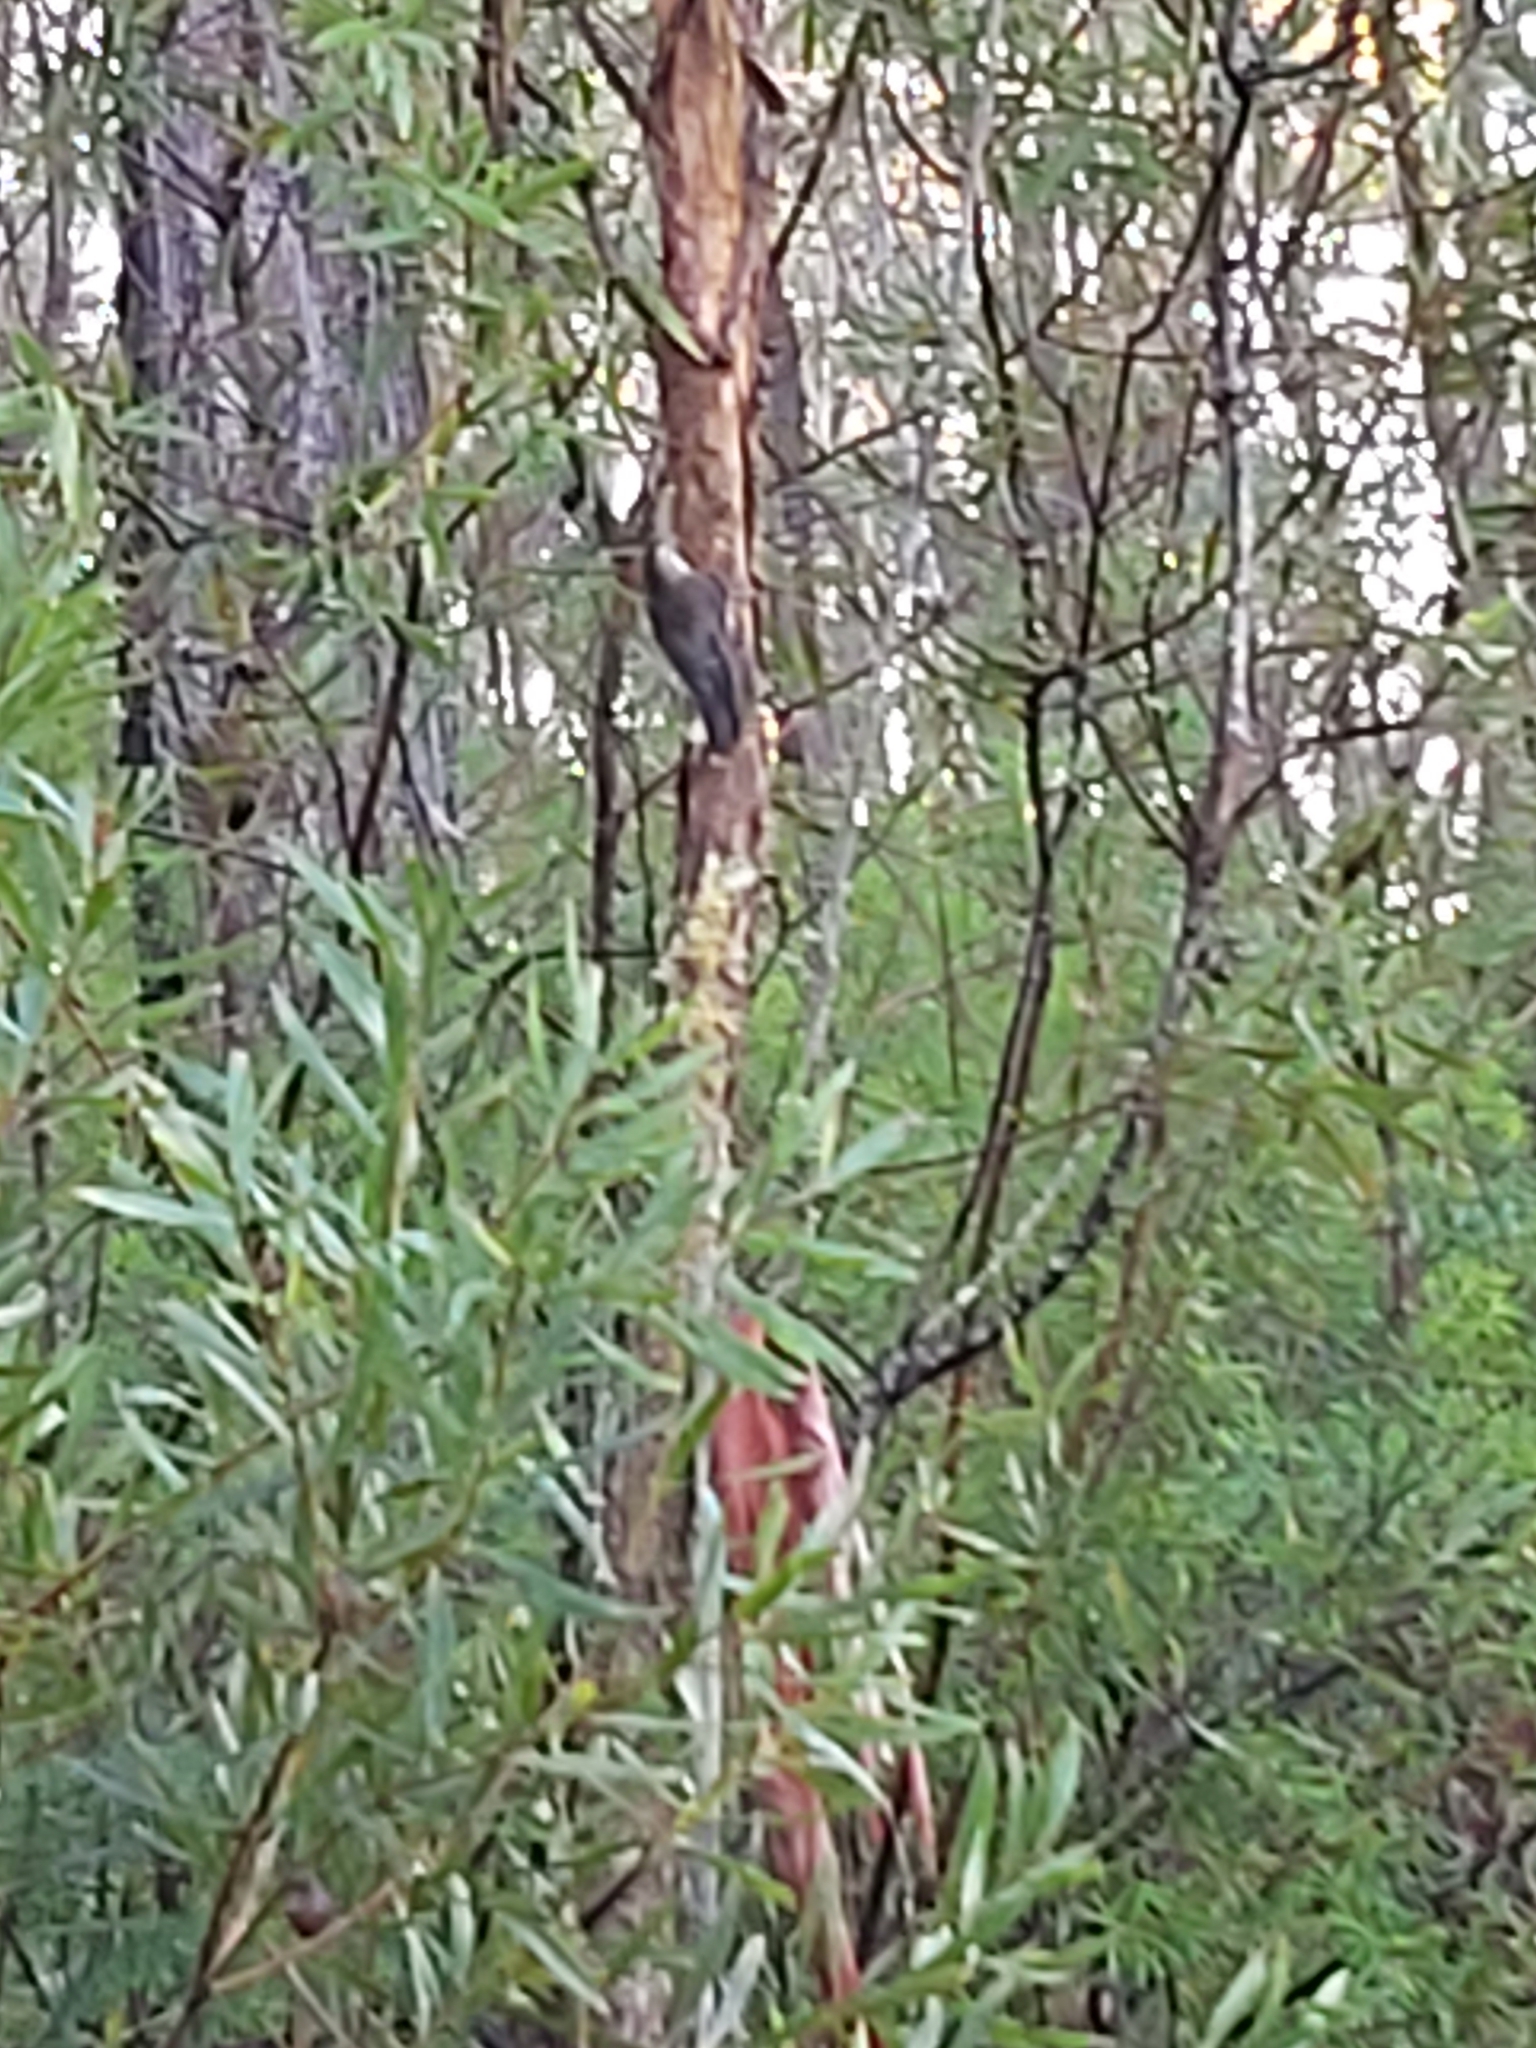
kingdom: Animalia
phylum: Chordata
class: Aves
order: Passeriformes
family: Climacteridae
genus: Cormobates
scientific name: Cormobates leucophaea
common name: White-throated treecreeper
